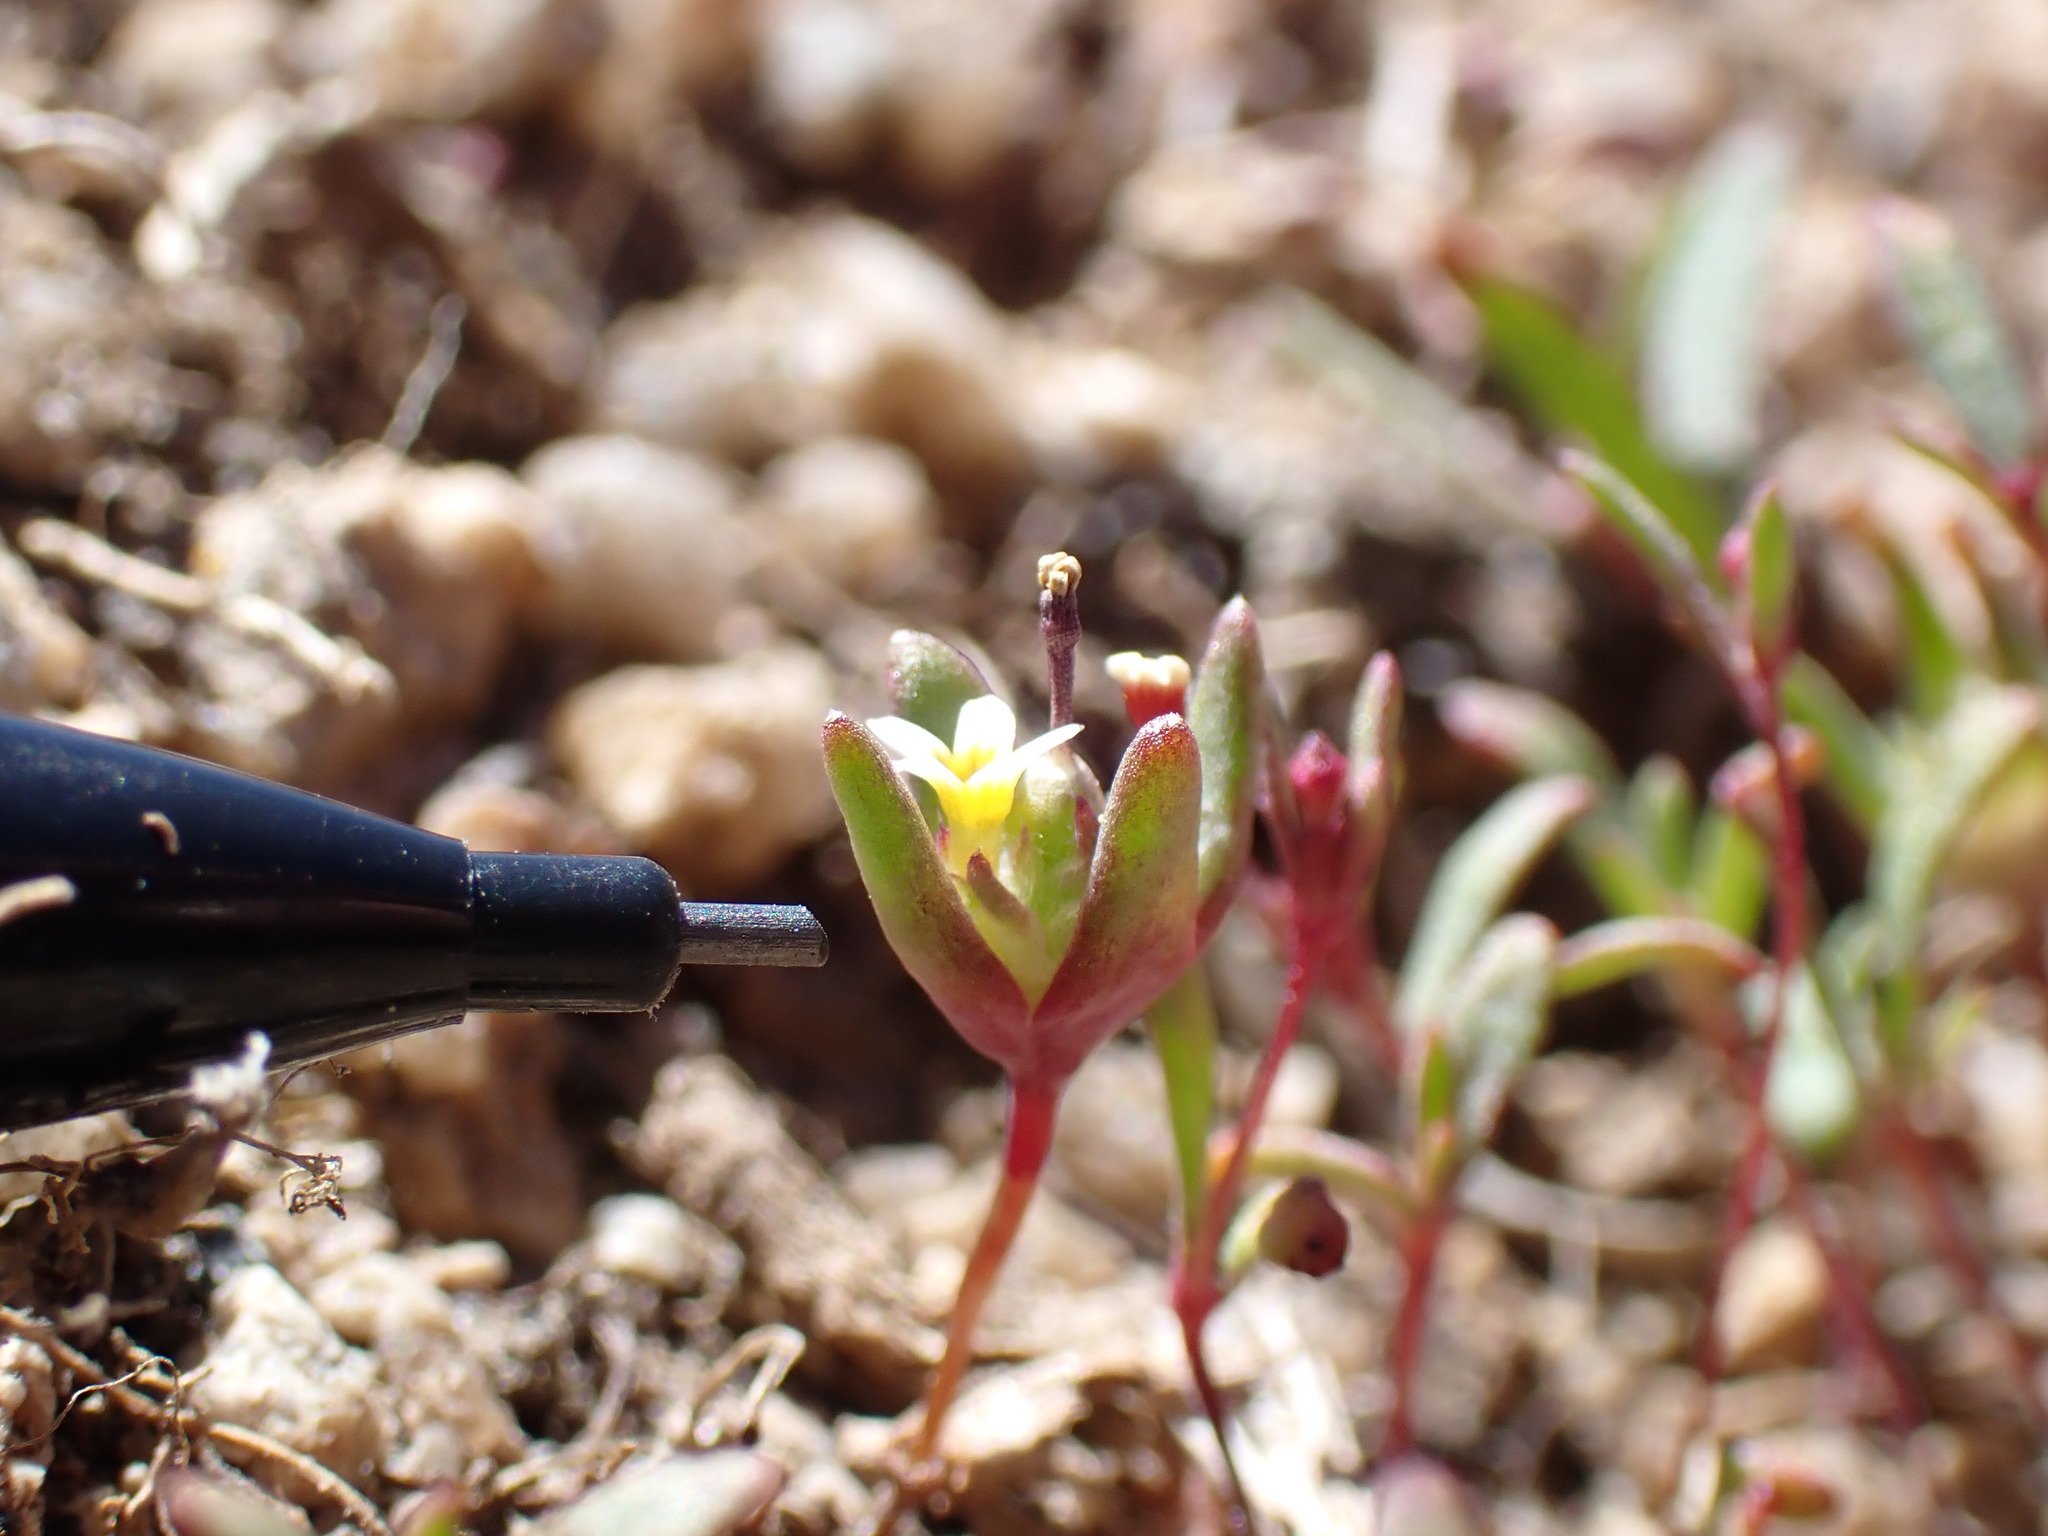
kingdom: Plantae
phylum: Tracheophyta
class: Magnoliopsida
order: Ericales
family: Polemoniaceae
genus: Gymnosteris
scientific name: Gymnosteris parvula
